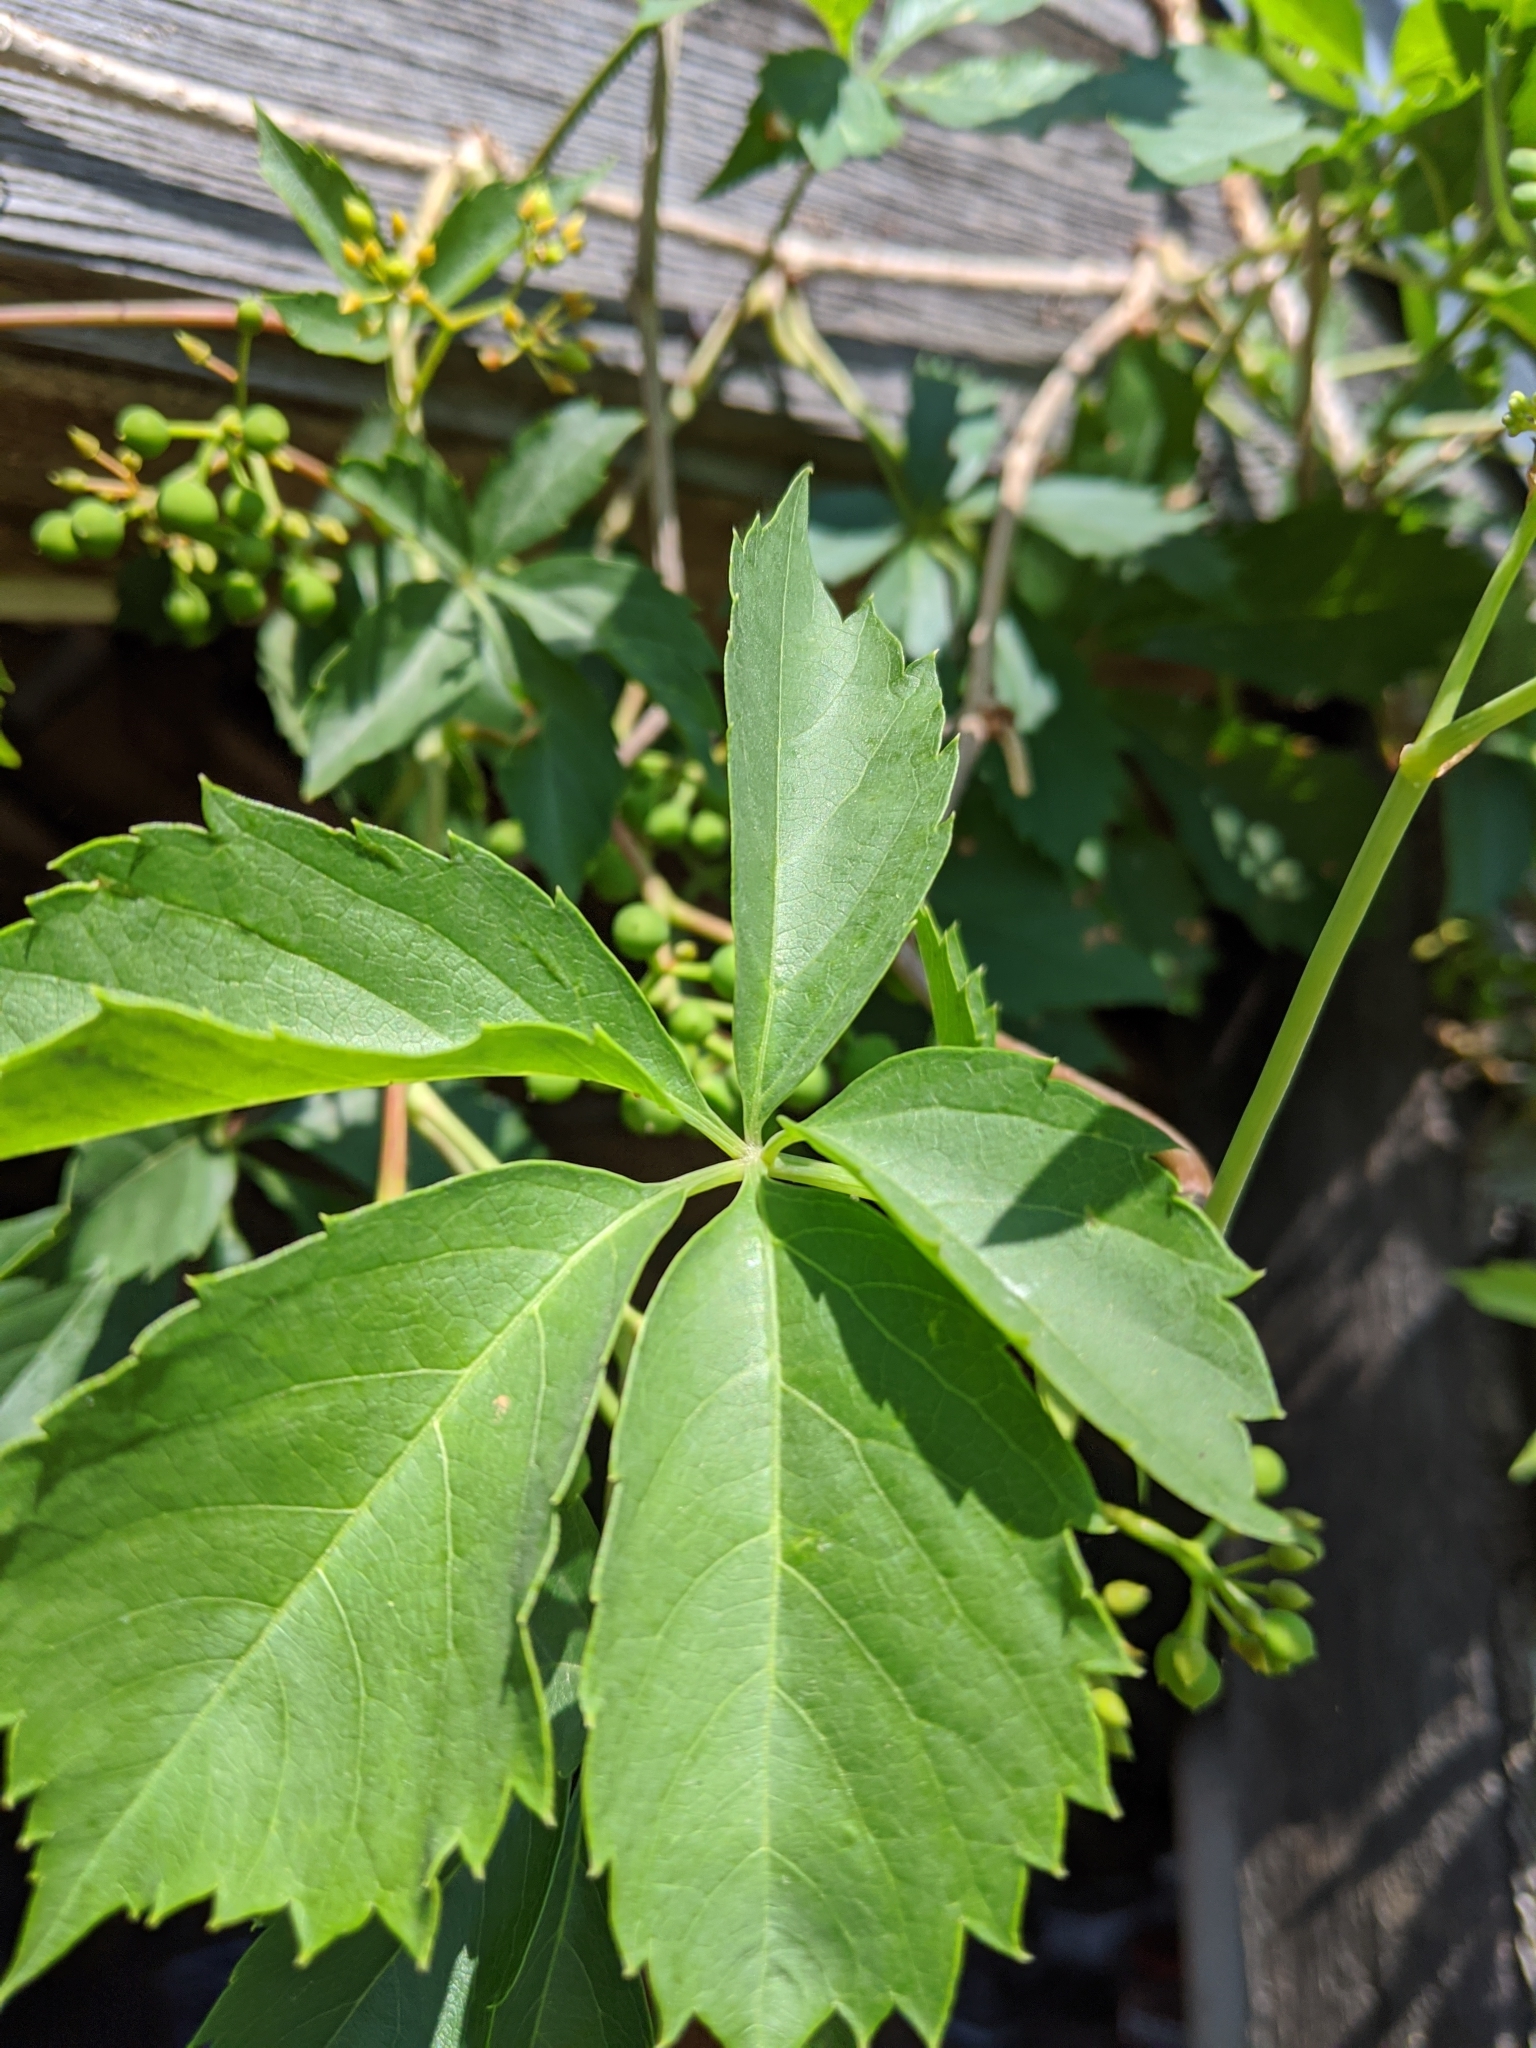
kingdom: Plantae
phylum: Tracheophyta
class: Magnoliopsida
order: Vitales
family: Vitaceae
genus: Parthenocissus
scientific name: Parthenocissus quinquefolia
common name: Virginia-creeper
